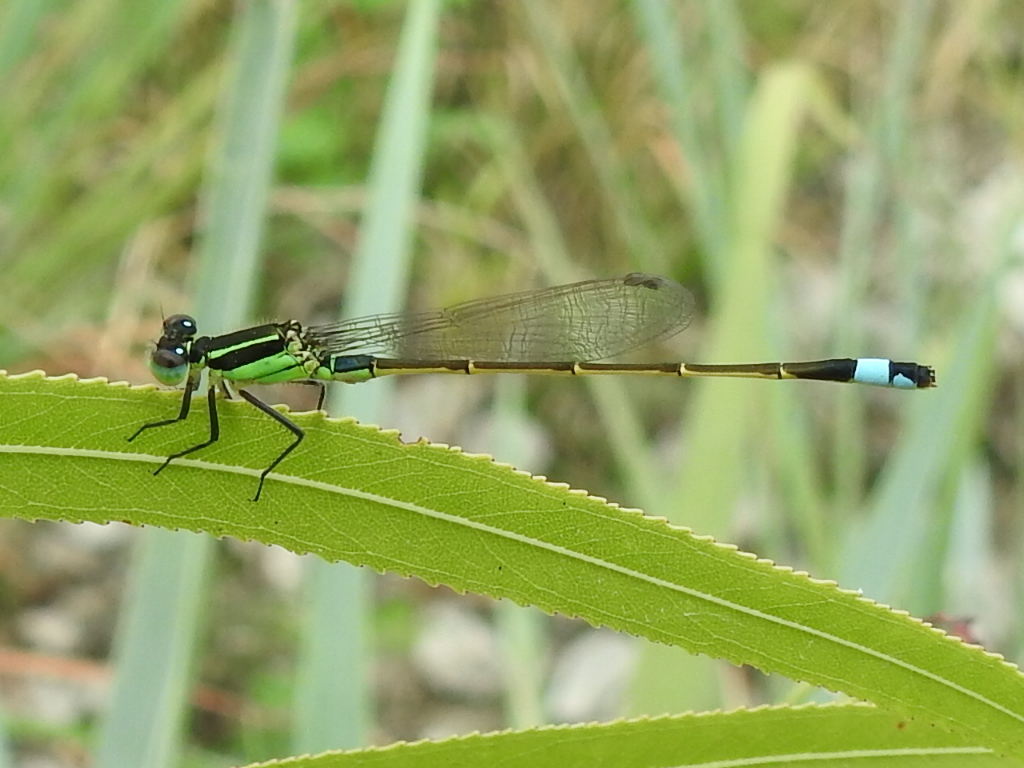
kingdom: Animalia
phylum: Arthropoda
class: Insecta
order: Odonata
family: Coenagrionidae
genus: Ischnura
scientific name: Ischnura ramburii
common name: Rambur's forktail
